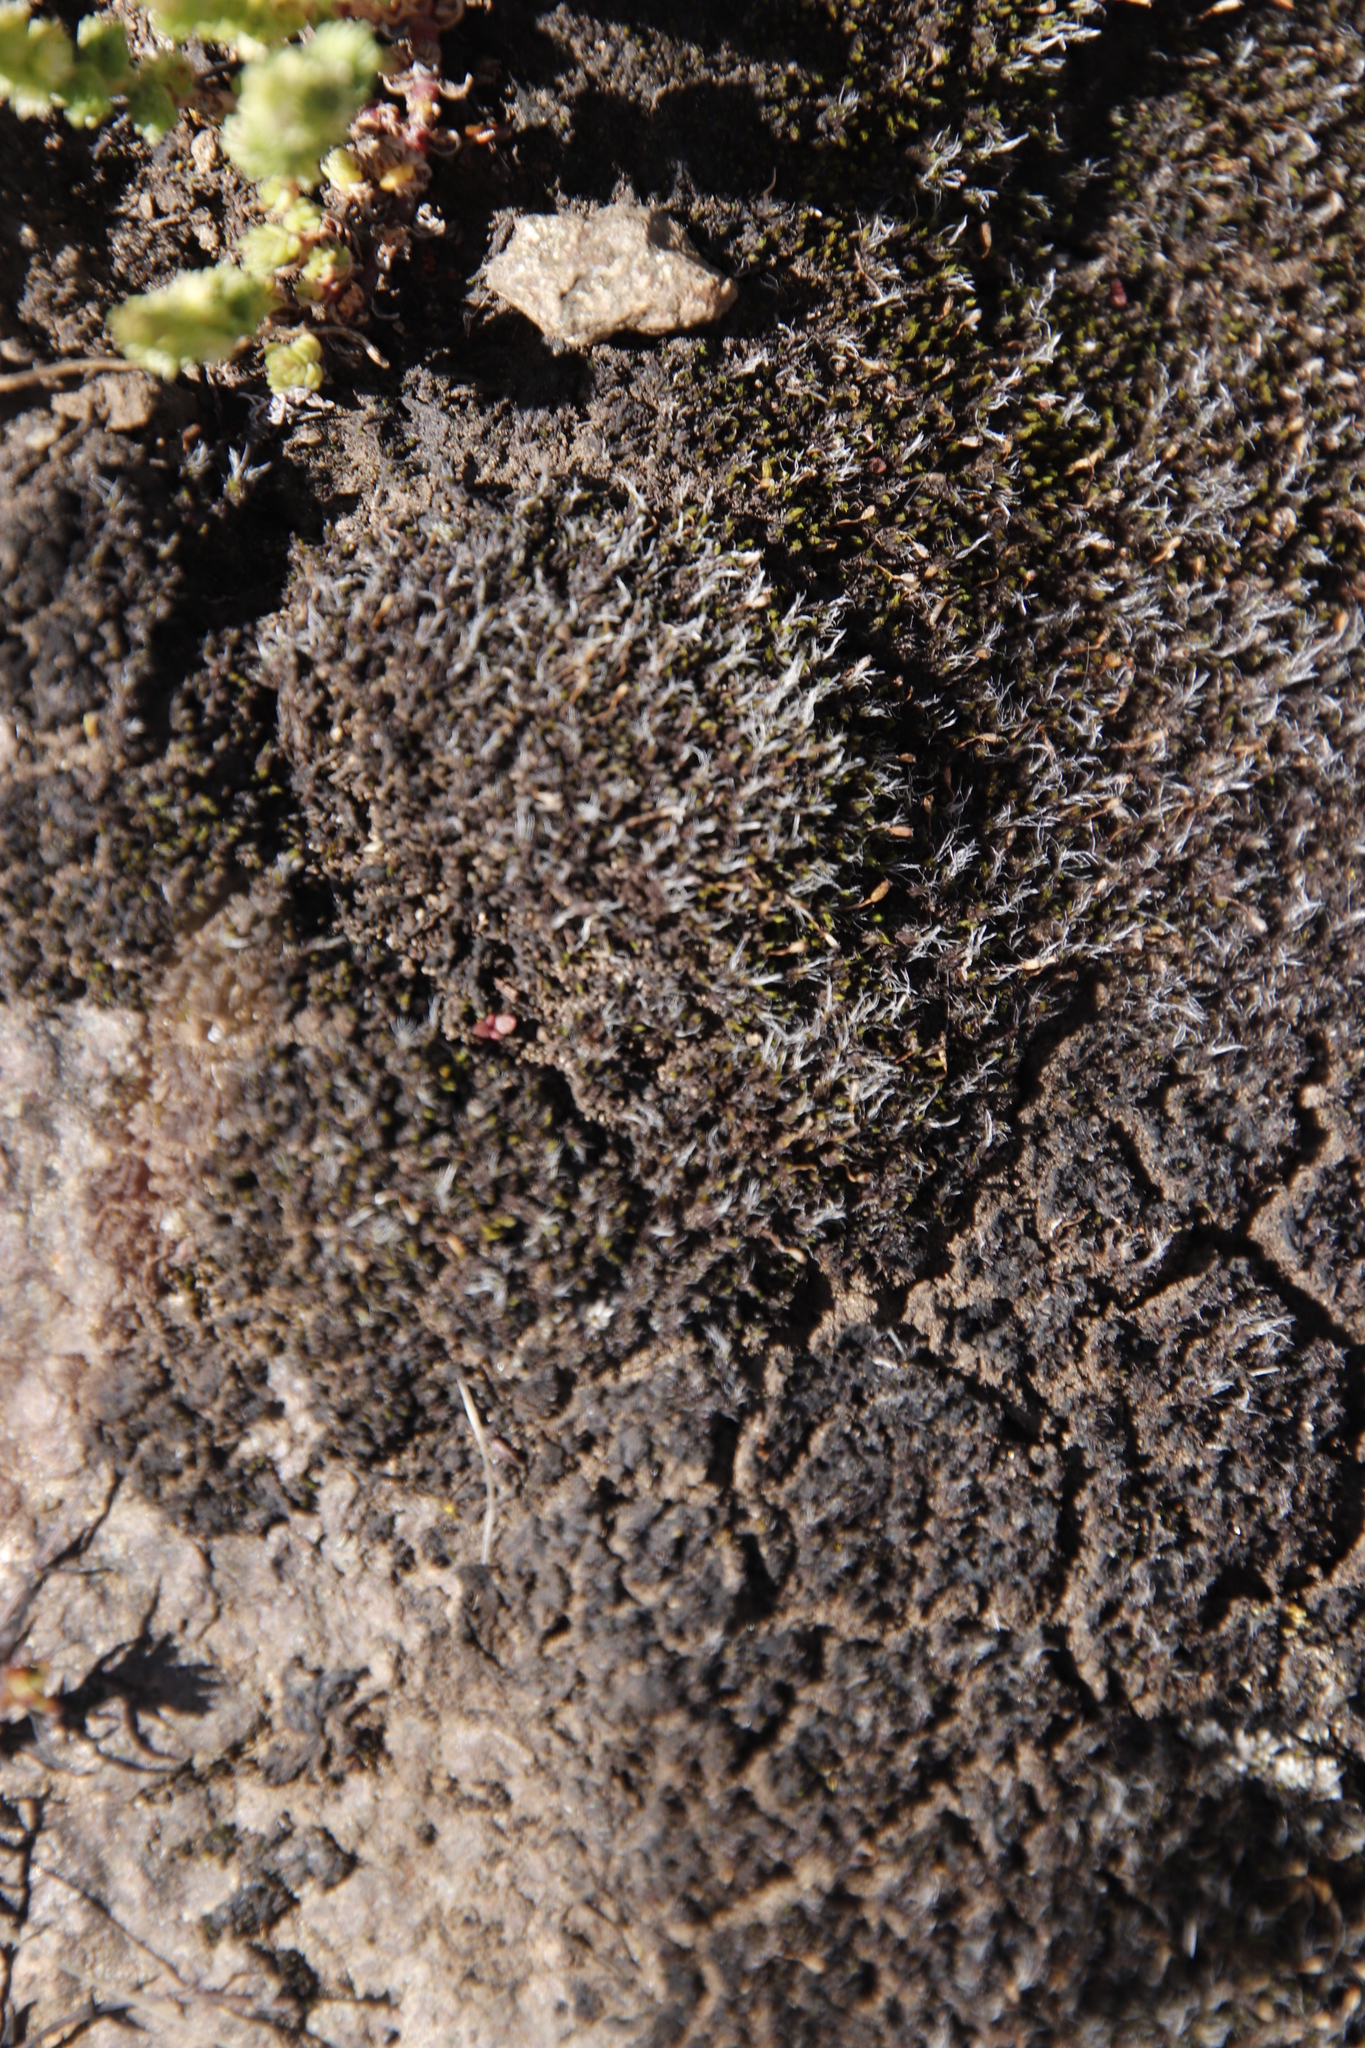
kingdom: Plantae
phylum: Bryophyta
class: Bryopsida
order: Grimmiales
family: Grimmiaceae
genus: Grimmia
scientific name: Grimmia laevigata
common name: Hoary grimmia
